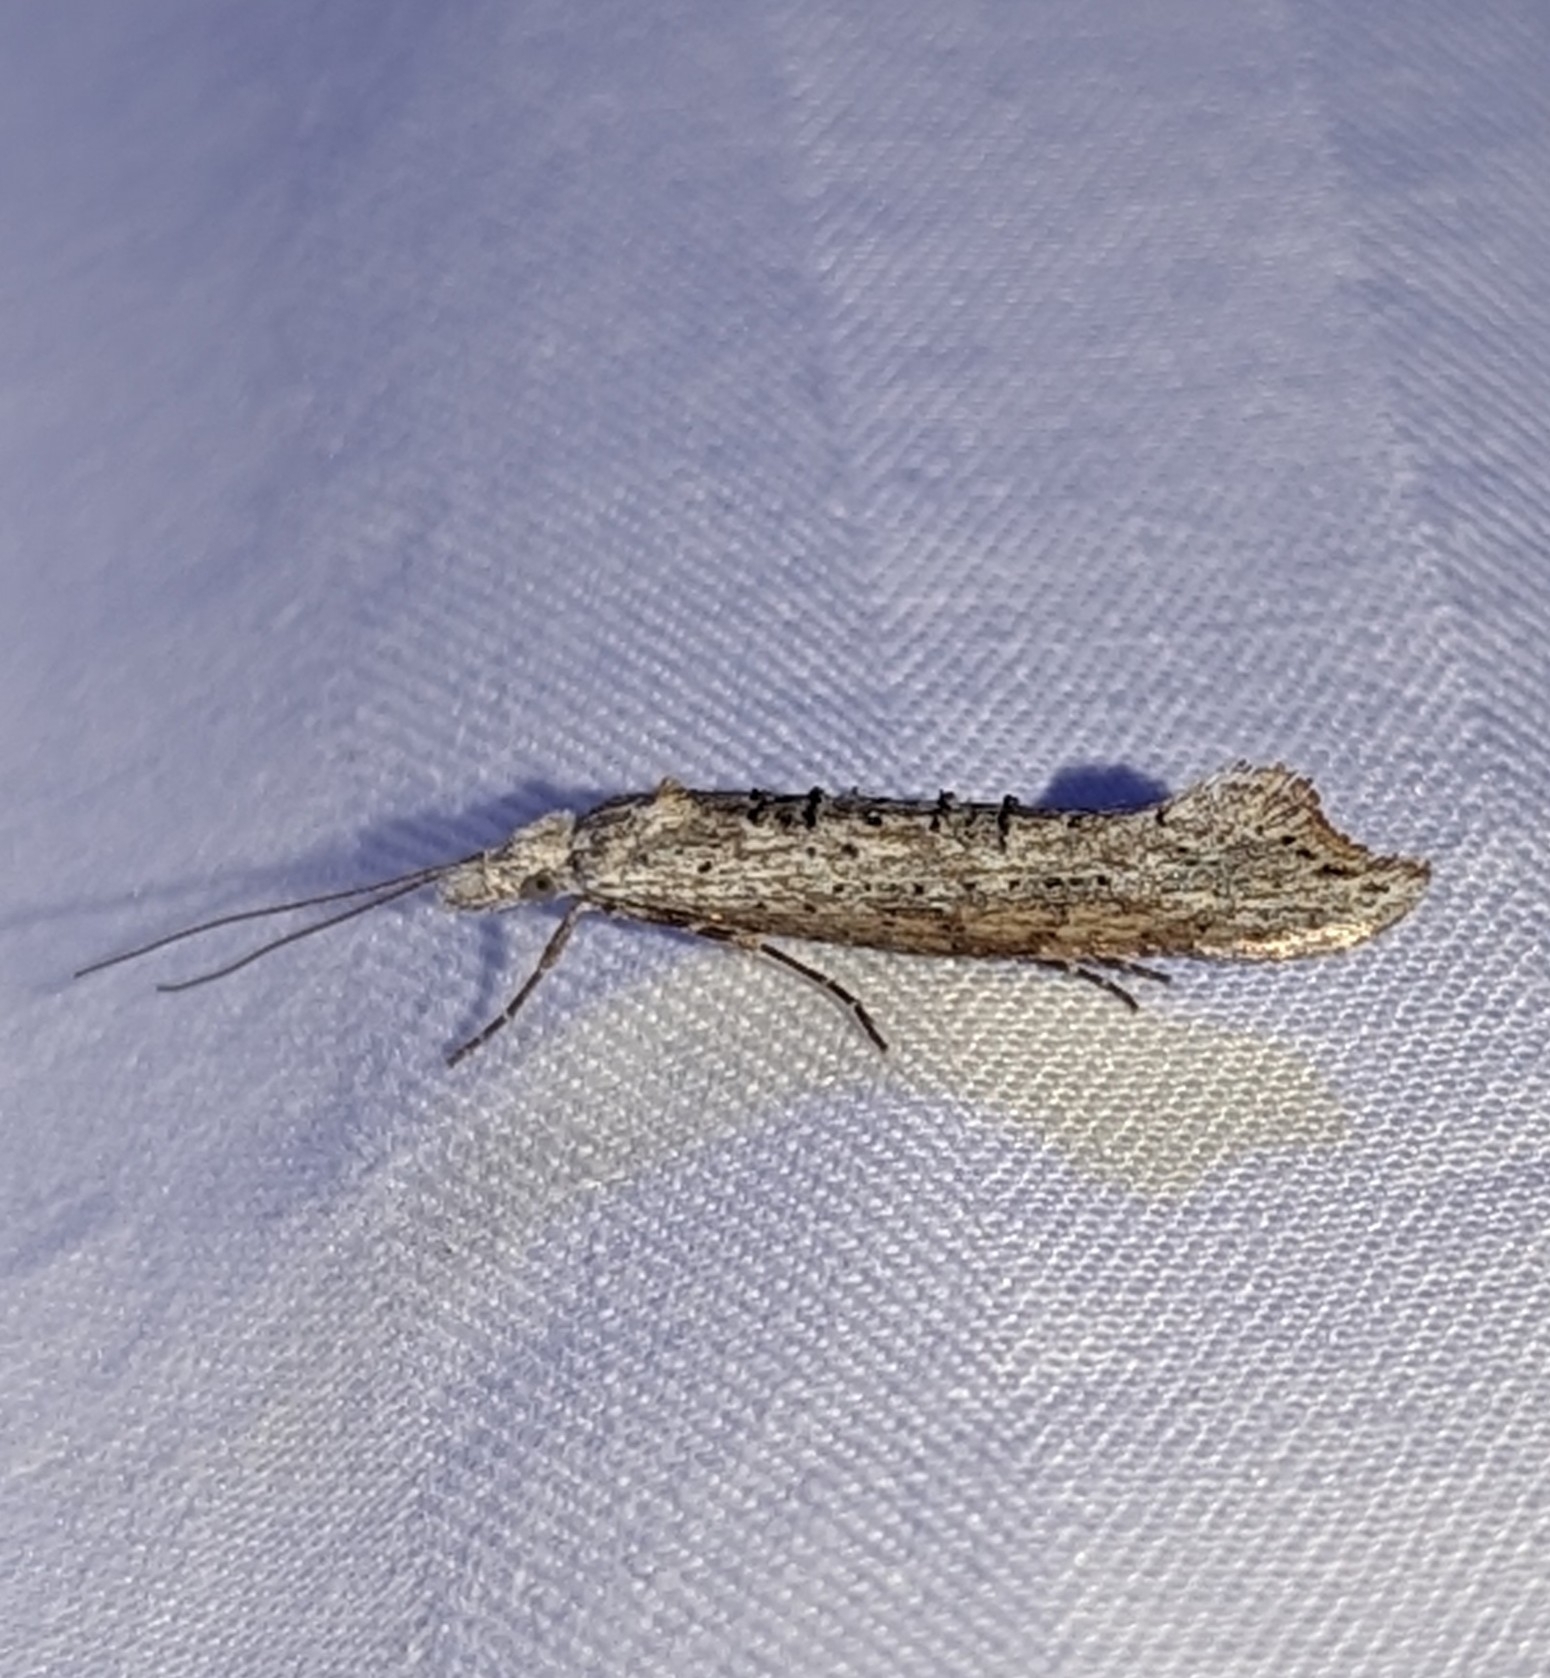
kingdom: Animalia
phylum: Arthropoda
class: Insecta
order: Lepidoptera
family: Ypsolophidae
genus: Ypsolopha
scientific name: Ypsolopha falciferella
